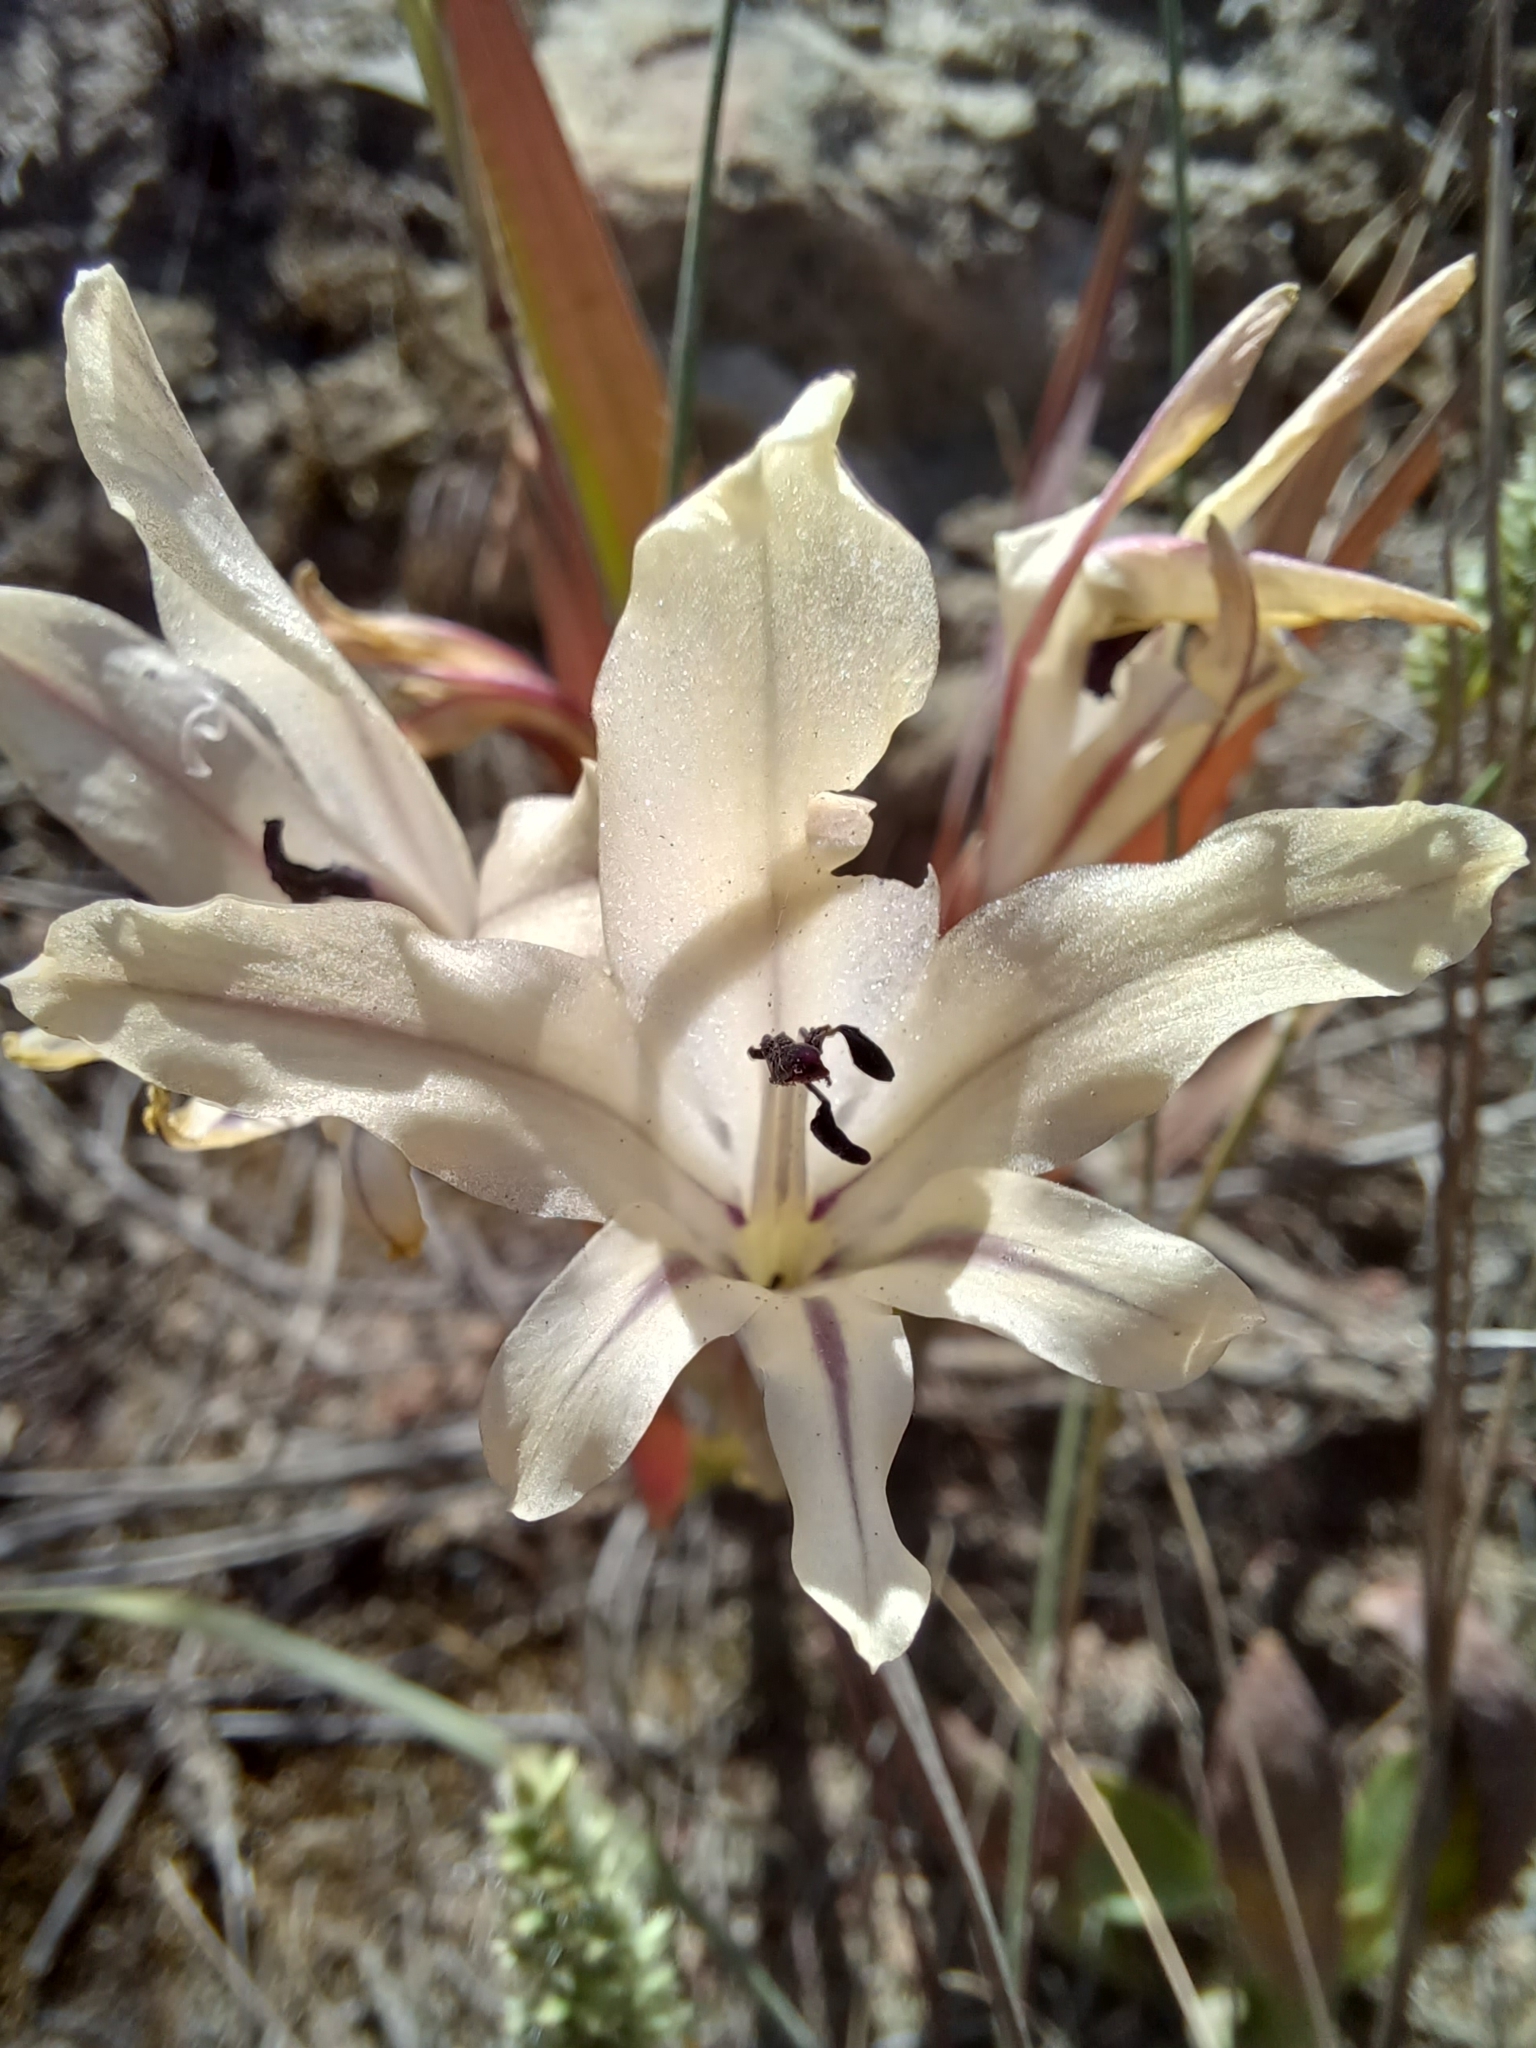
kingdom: Plantae
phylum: Tracheophyta
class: Liliopsida
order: Asparagales
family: Iridaceae
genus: Gladiolus
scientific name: Gladiolus floribundus
